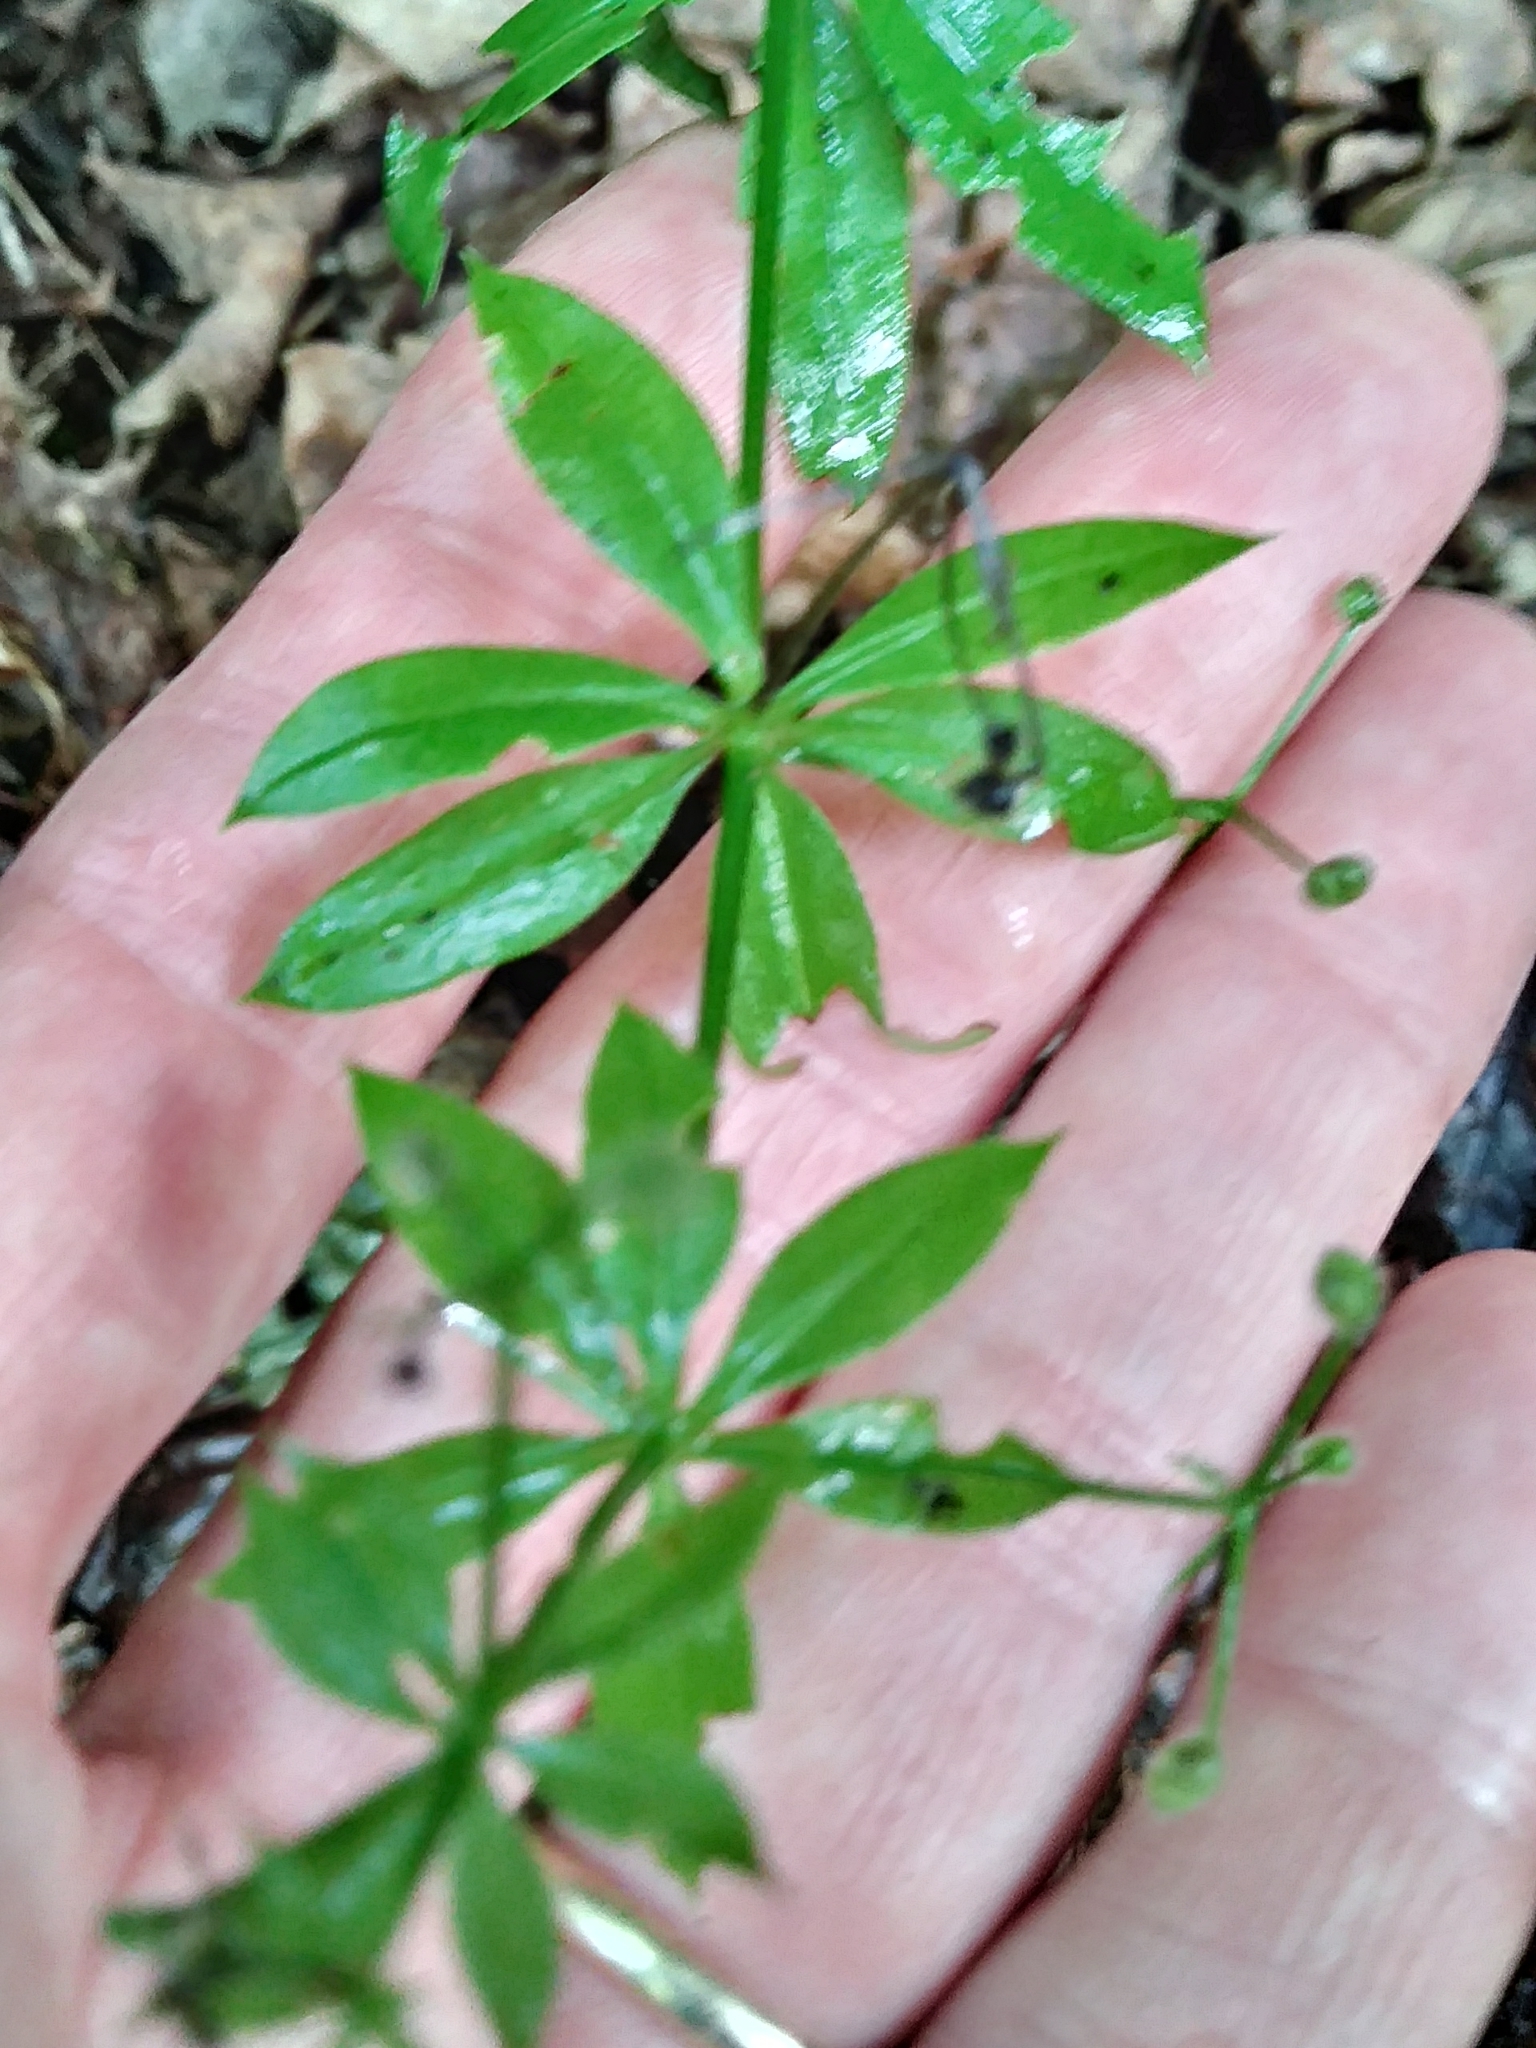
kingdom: Plantae
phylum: Tracheophyta
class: Magnoliopsida
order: Gentianales
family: Rubiaceae
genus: Galium
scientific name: Galium triflorum
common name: Fragrant bedstraw
